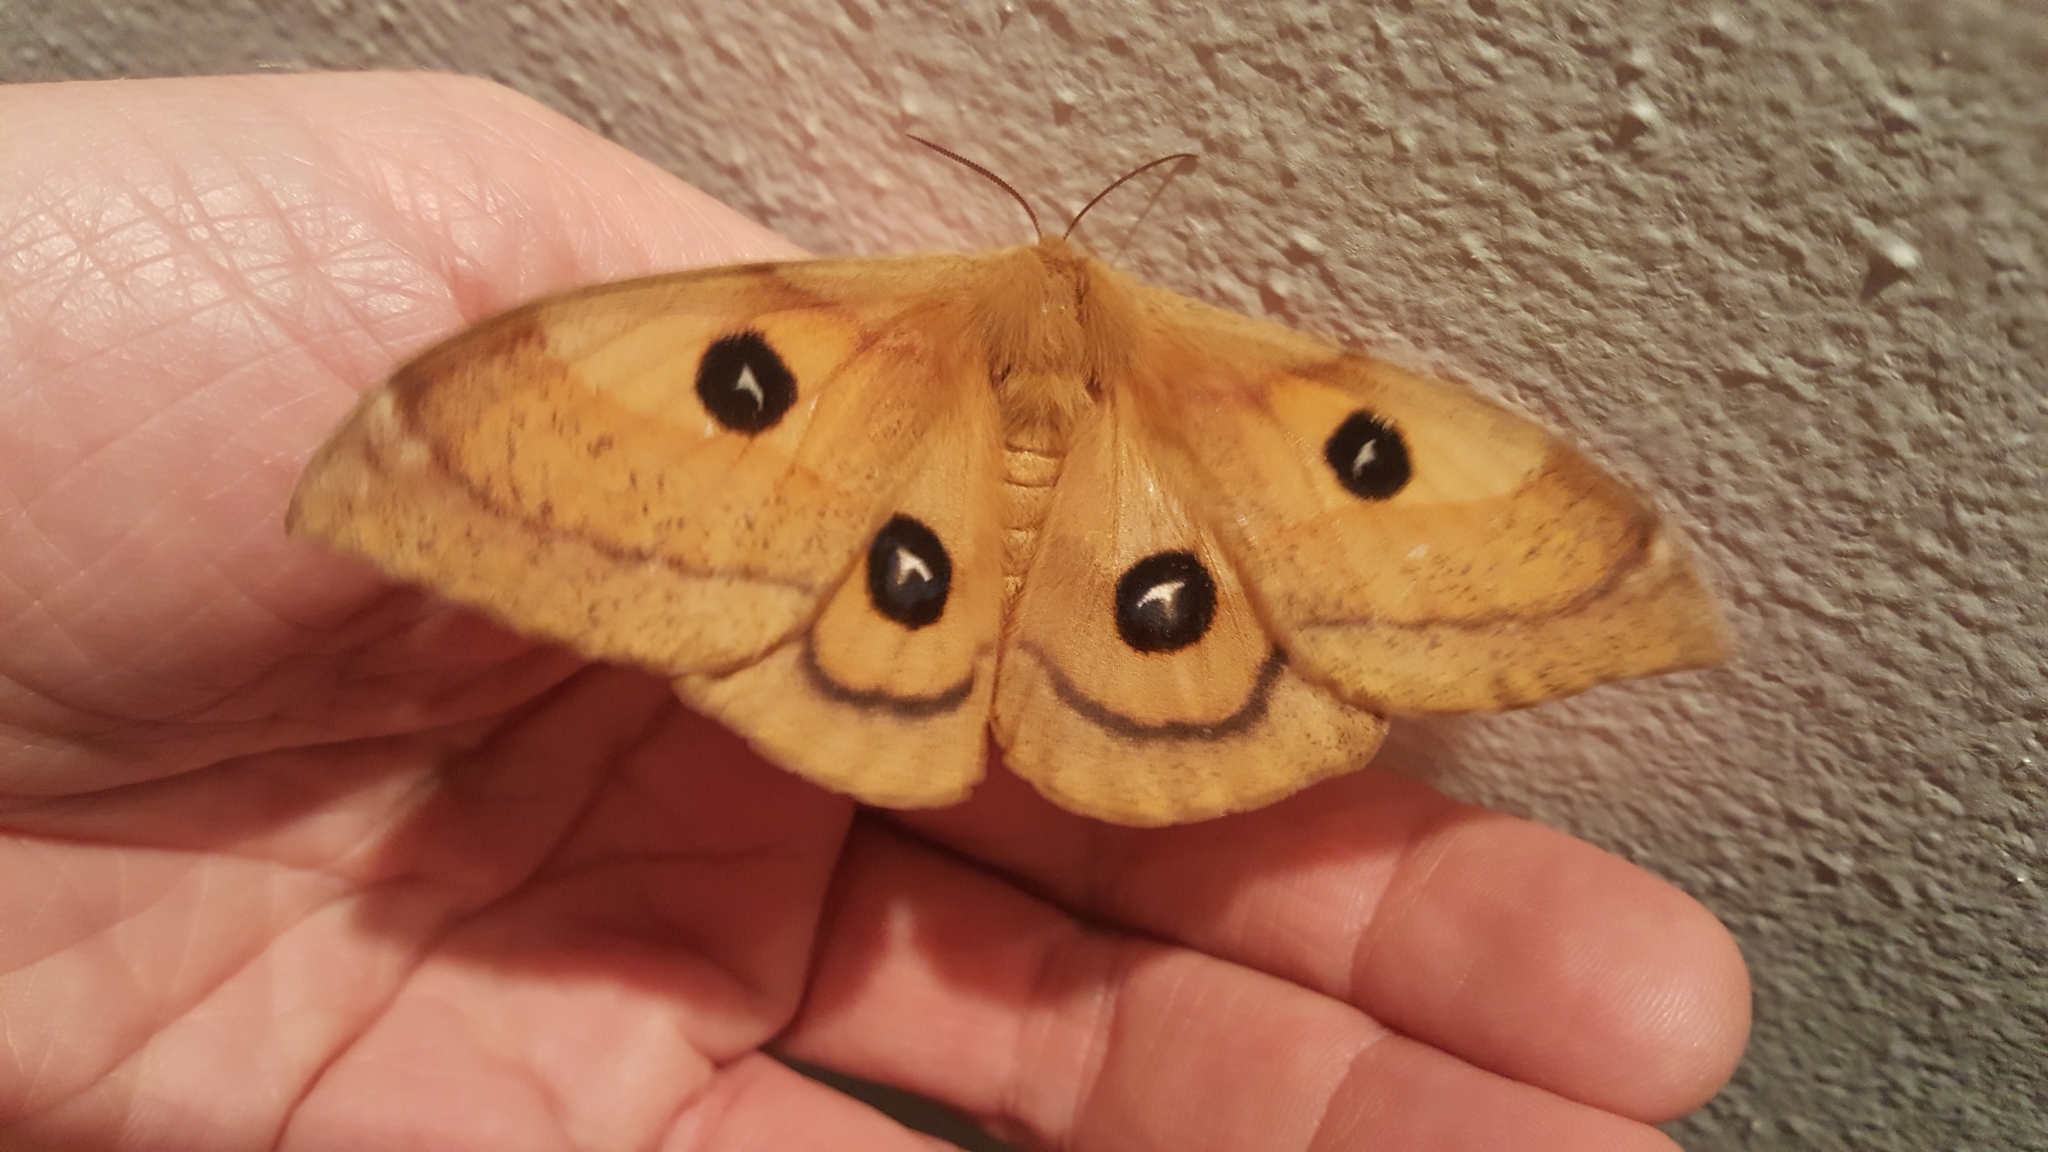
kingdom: Animalia
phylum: Arthropoda
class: Insecta
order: Lepidoptera
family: Saturniidae
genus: Aglia
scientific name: Aglia tau
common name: Tau emperor
